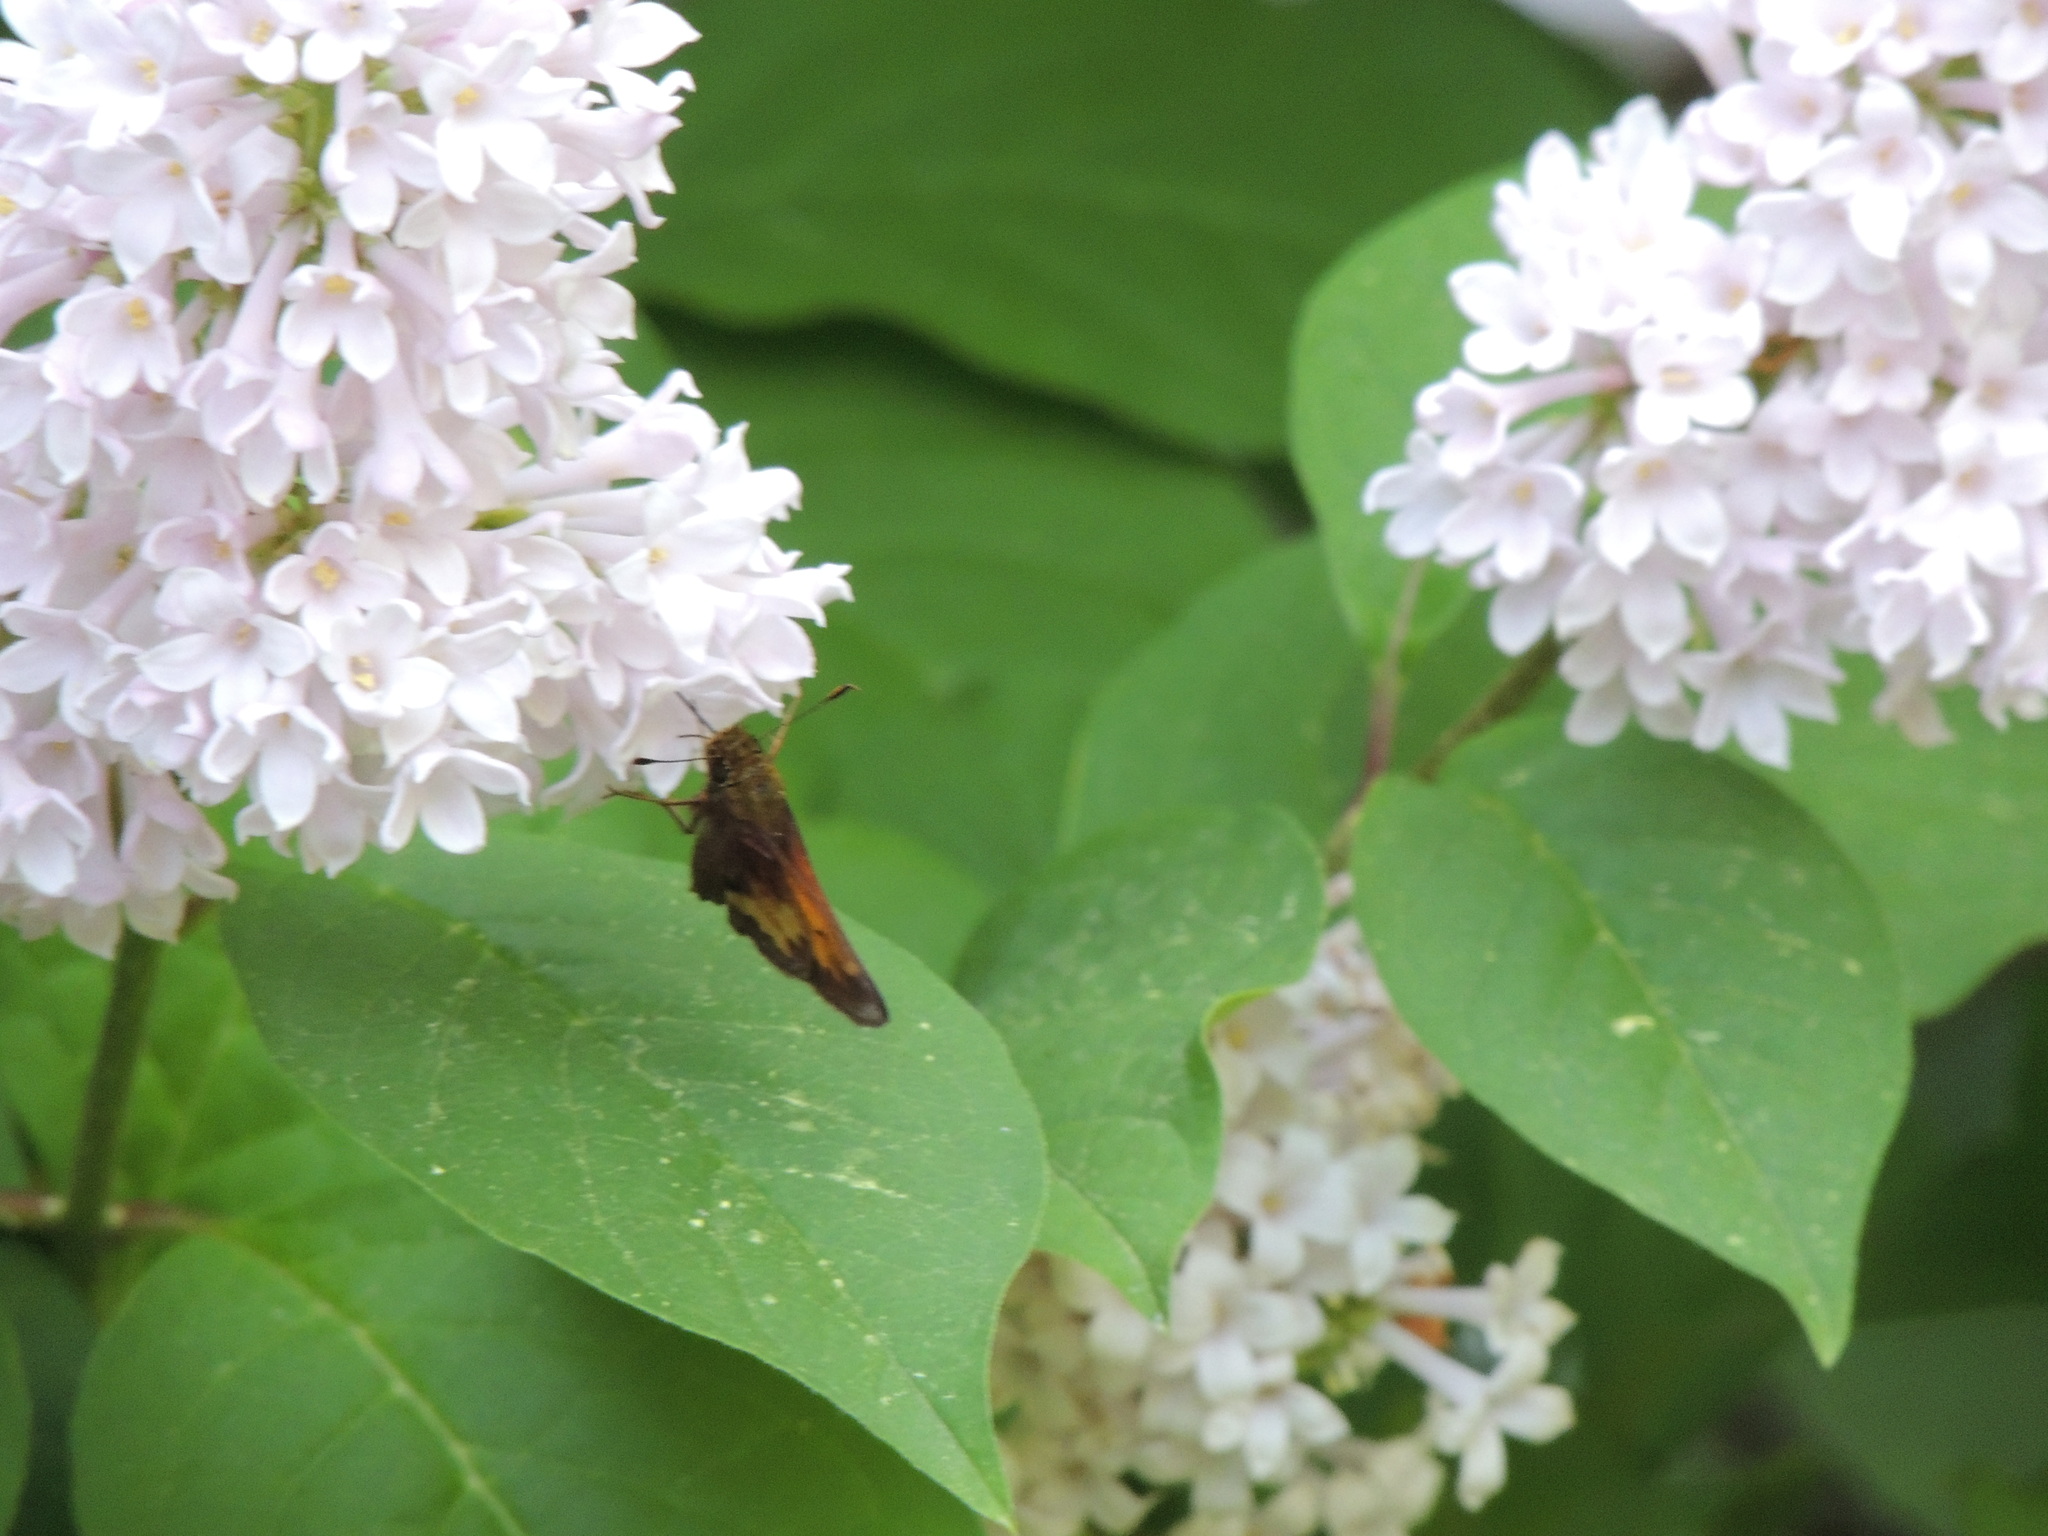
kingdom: Animalia
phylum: Arthropoda
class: Insecta
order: Lepidoptera
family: Hesperiidae
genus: Lon
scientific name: Lon hobomok
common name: Hobomok skipper
